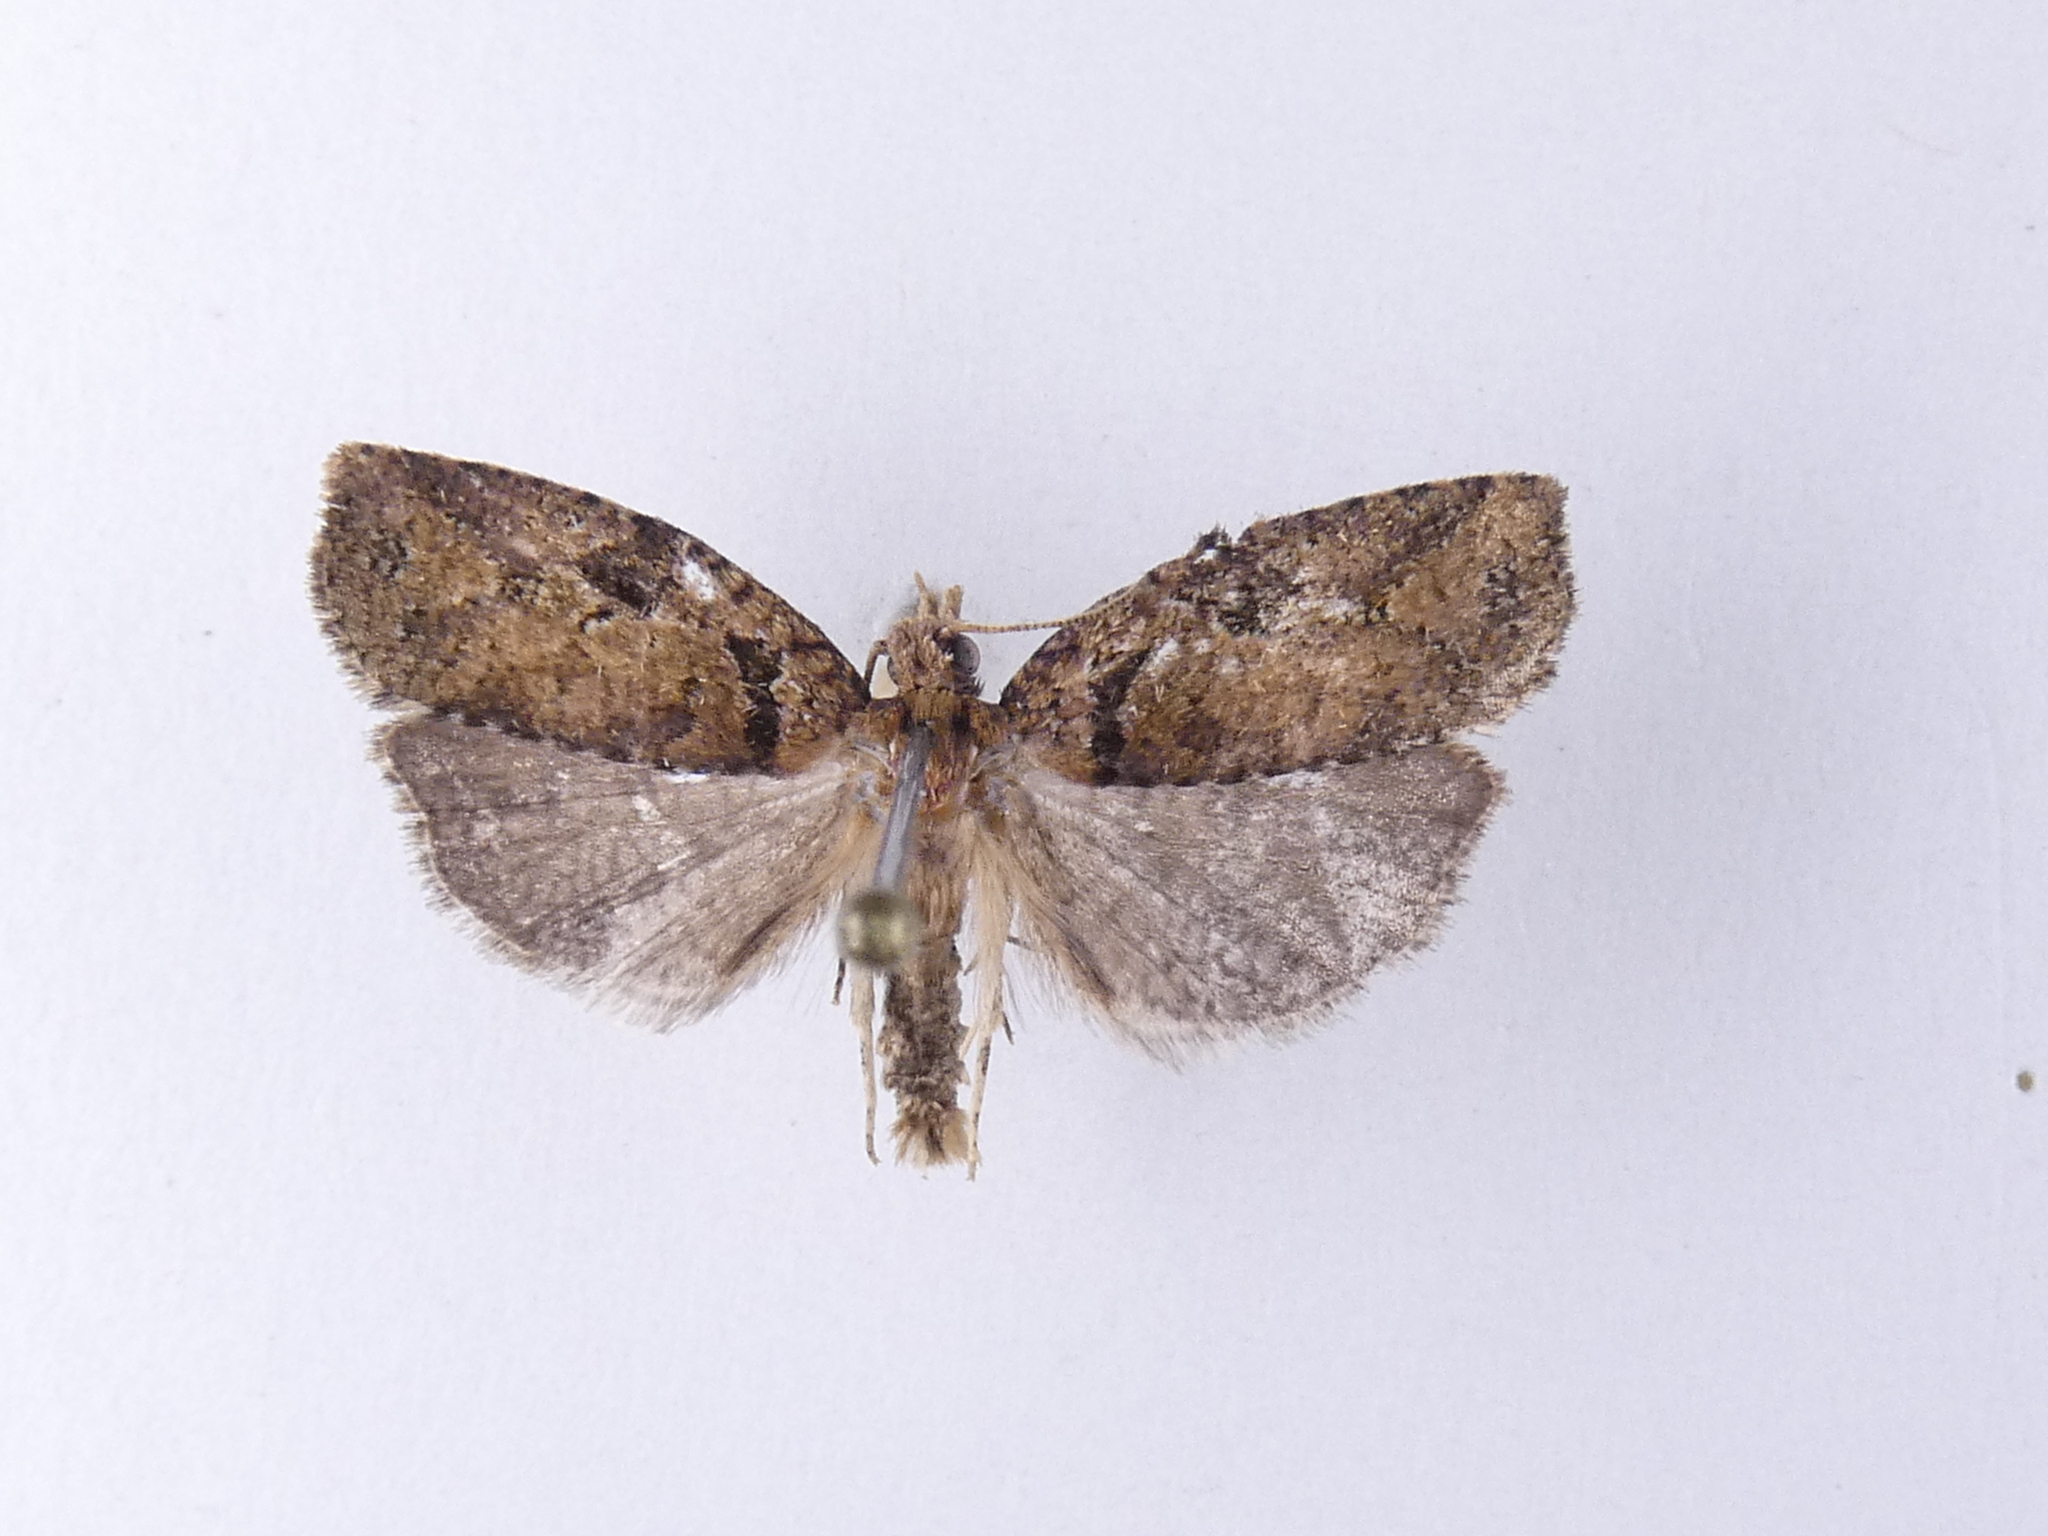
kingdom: Animalia
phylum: Arthropoda
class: Insecta
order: Lepidoptera
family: Tortricidae
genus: Ctenopseustis
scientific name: Ctenopseustis obliquana
